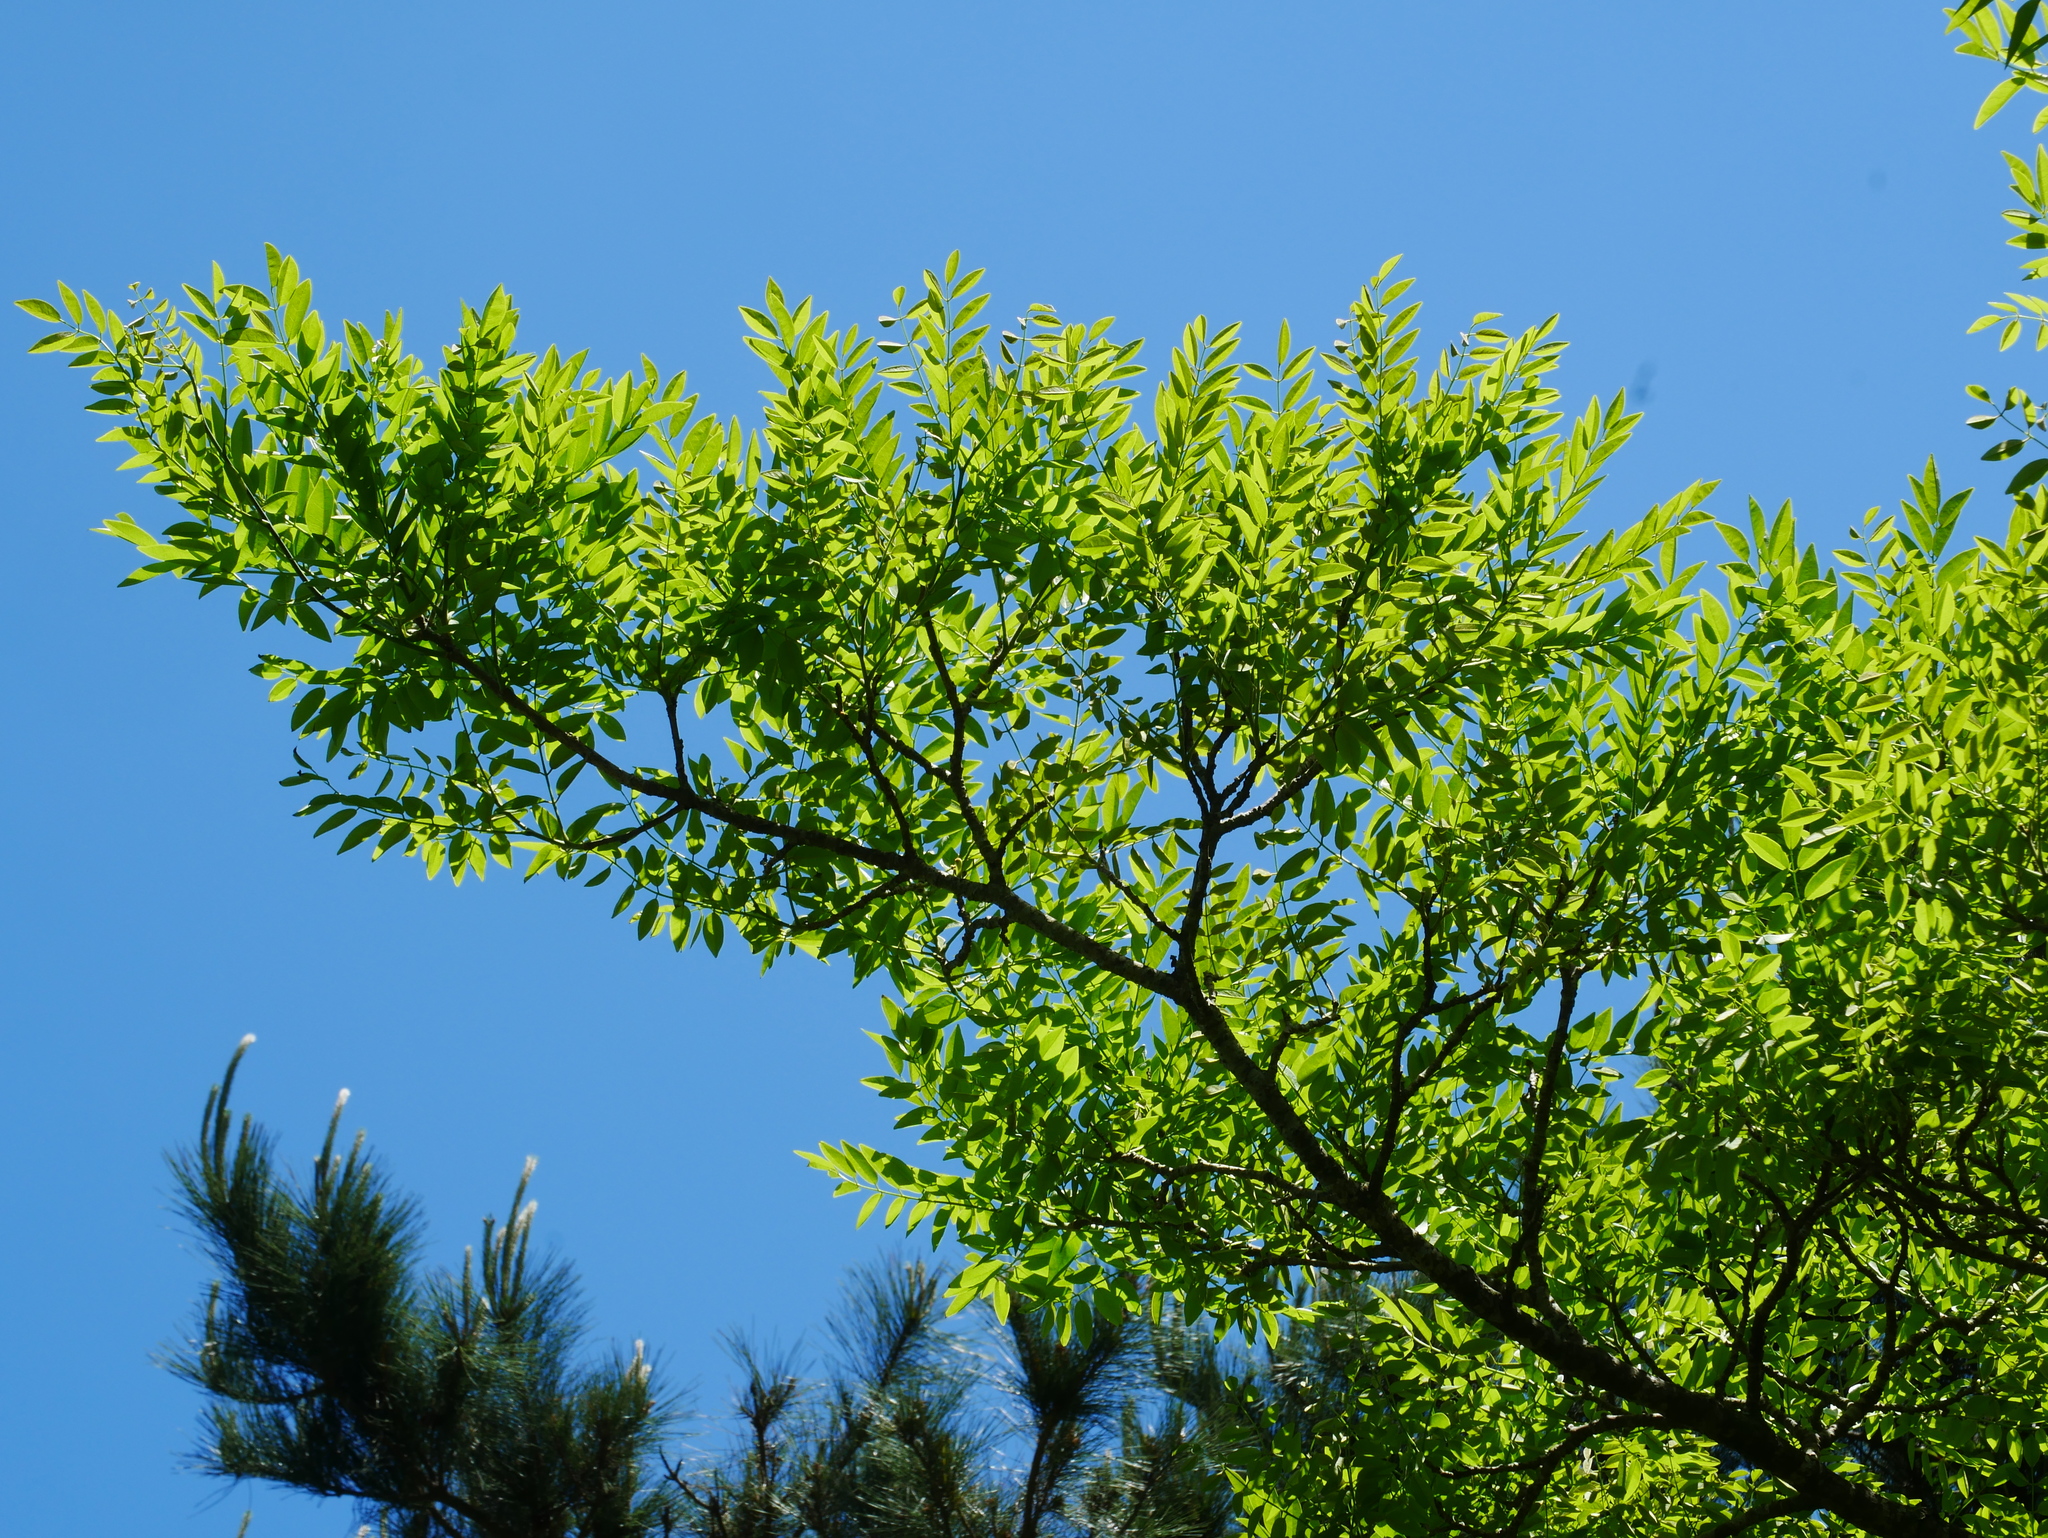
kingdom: Plantae
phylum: Tracheophyta
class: Magnoliopsida
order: Fabales
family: Fabaceae
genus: Maackia
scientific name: Maackia taiwanensis
